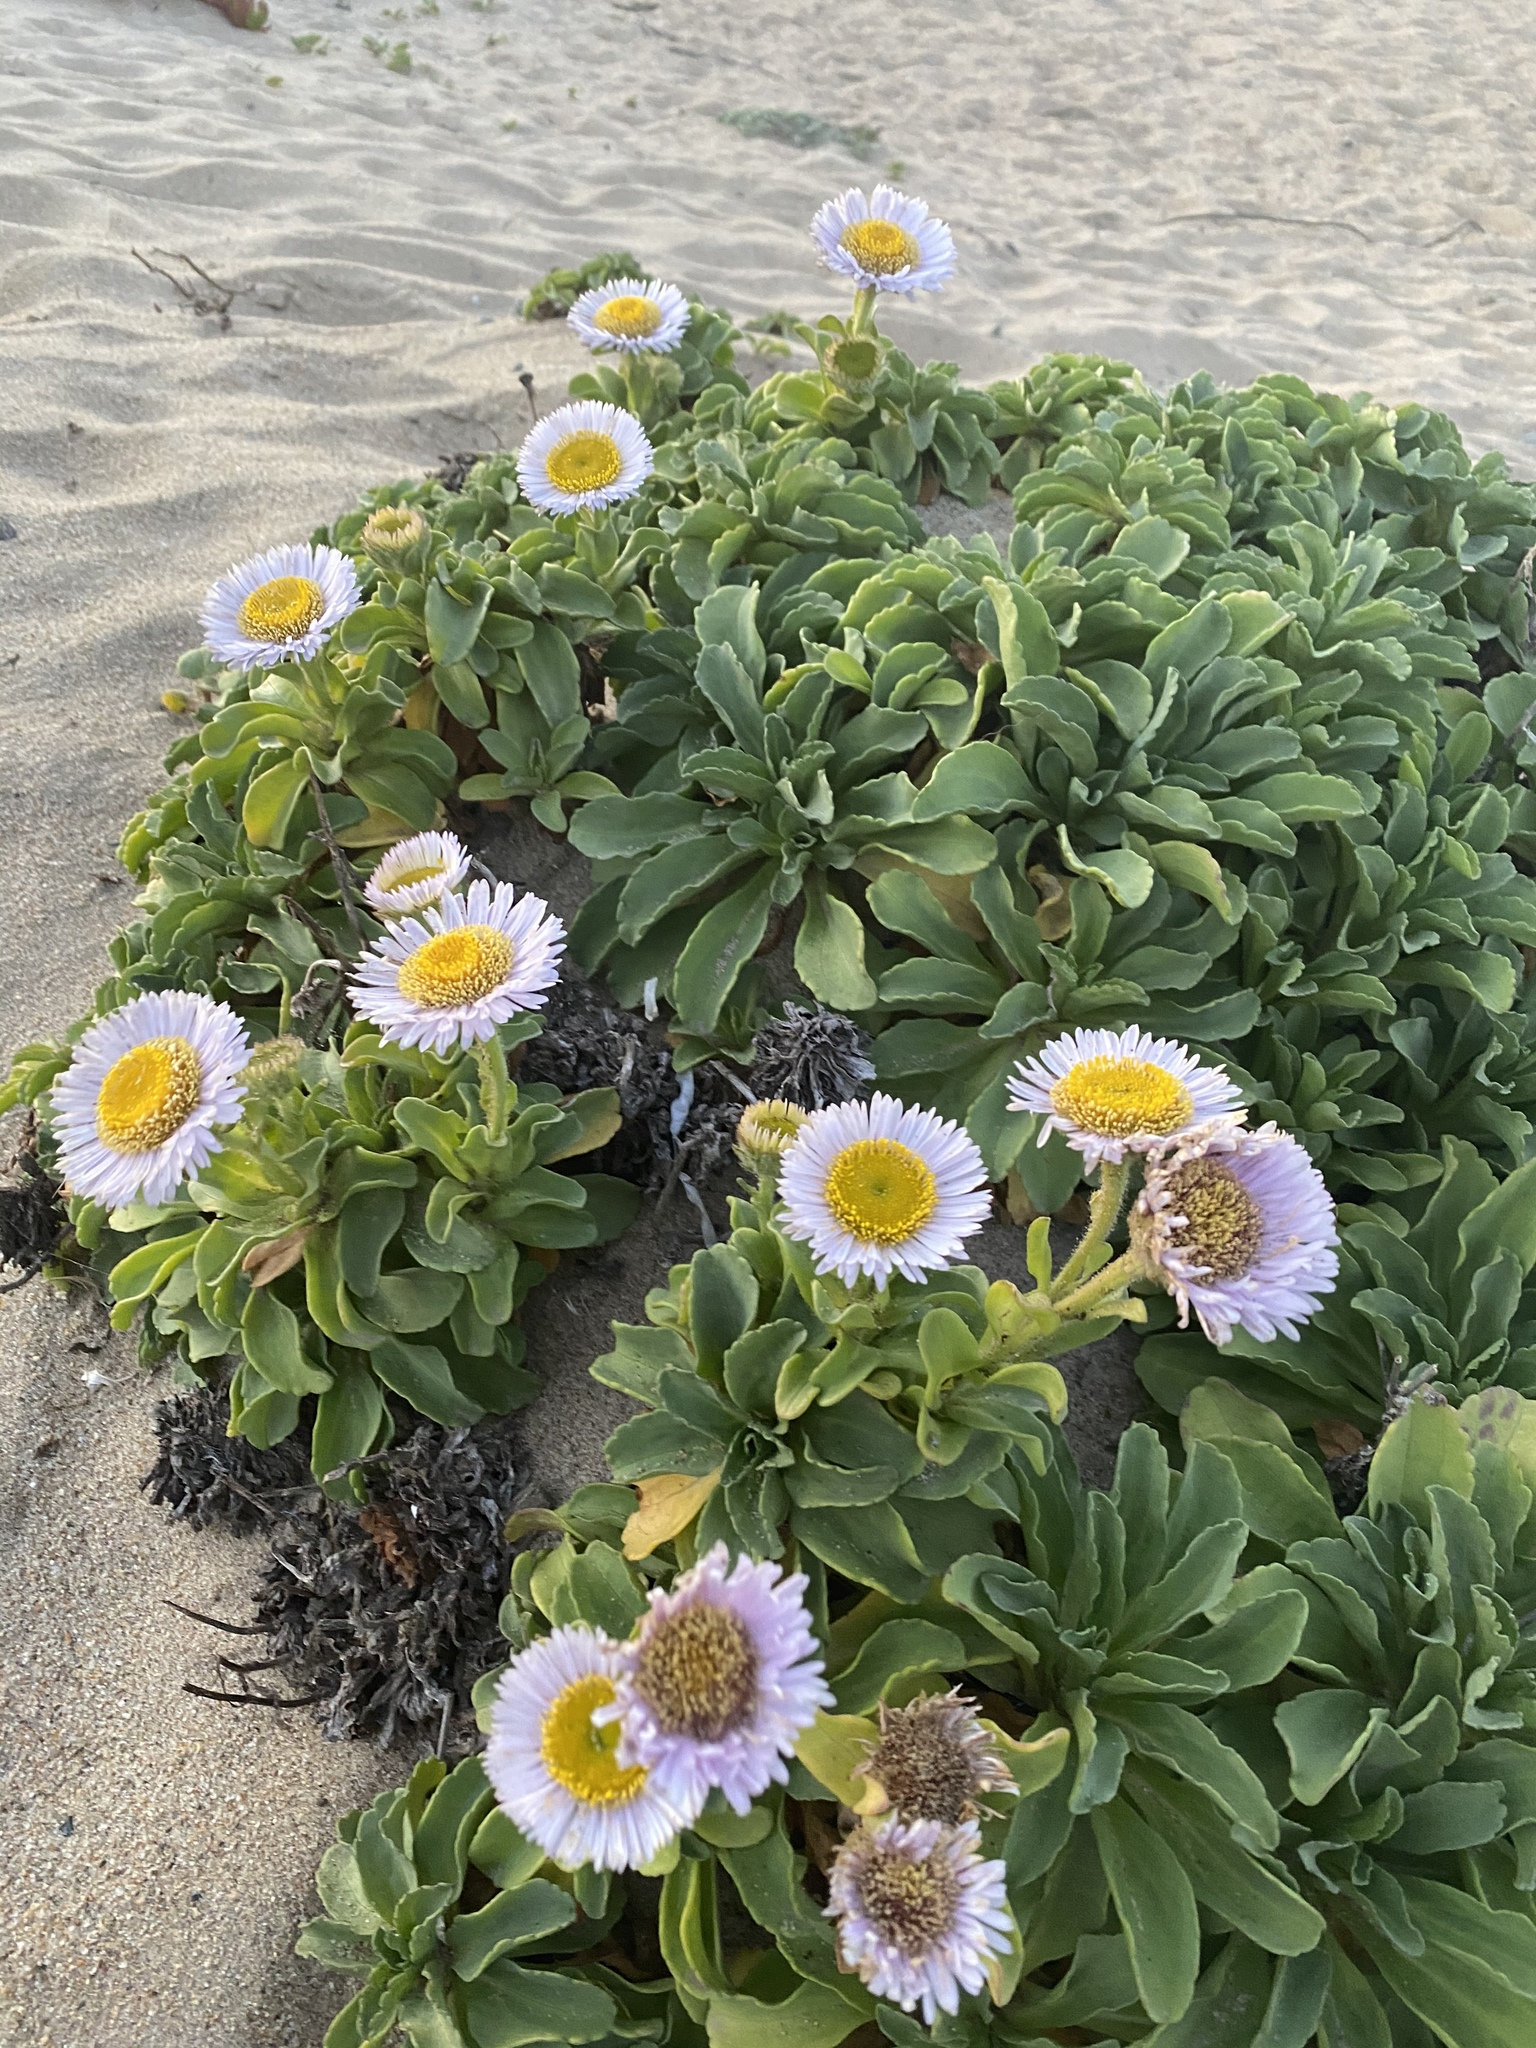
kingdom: Plantae
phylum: Tracheophyta
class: Magnoliopsida
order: Asterales
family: Asteraceae
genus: Erigeron
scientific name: Erigeron glaucus
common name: Seaside daisy
